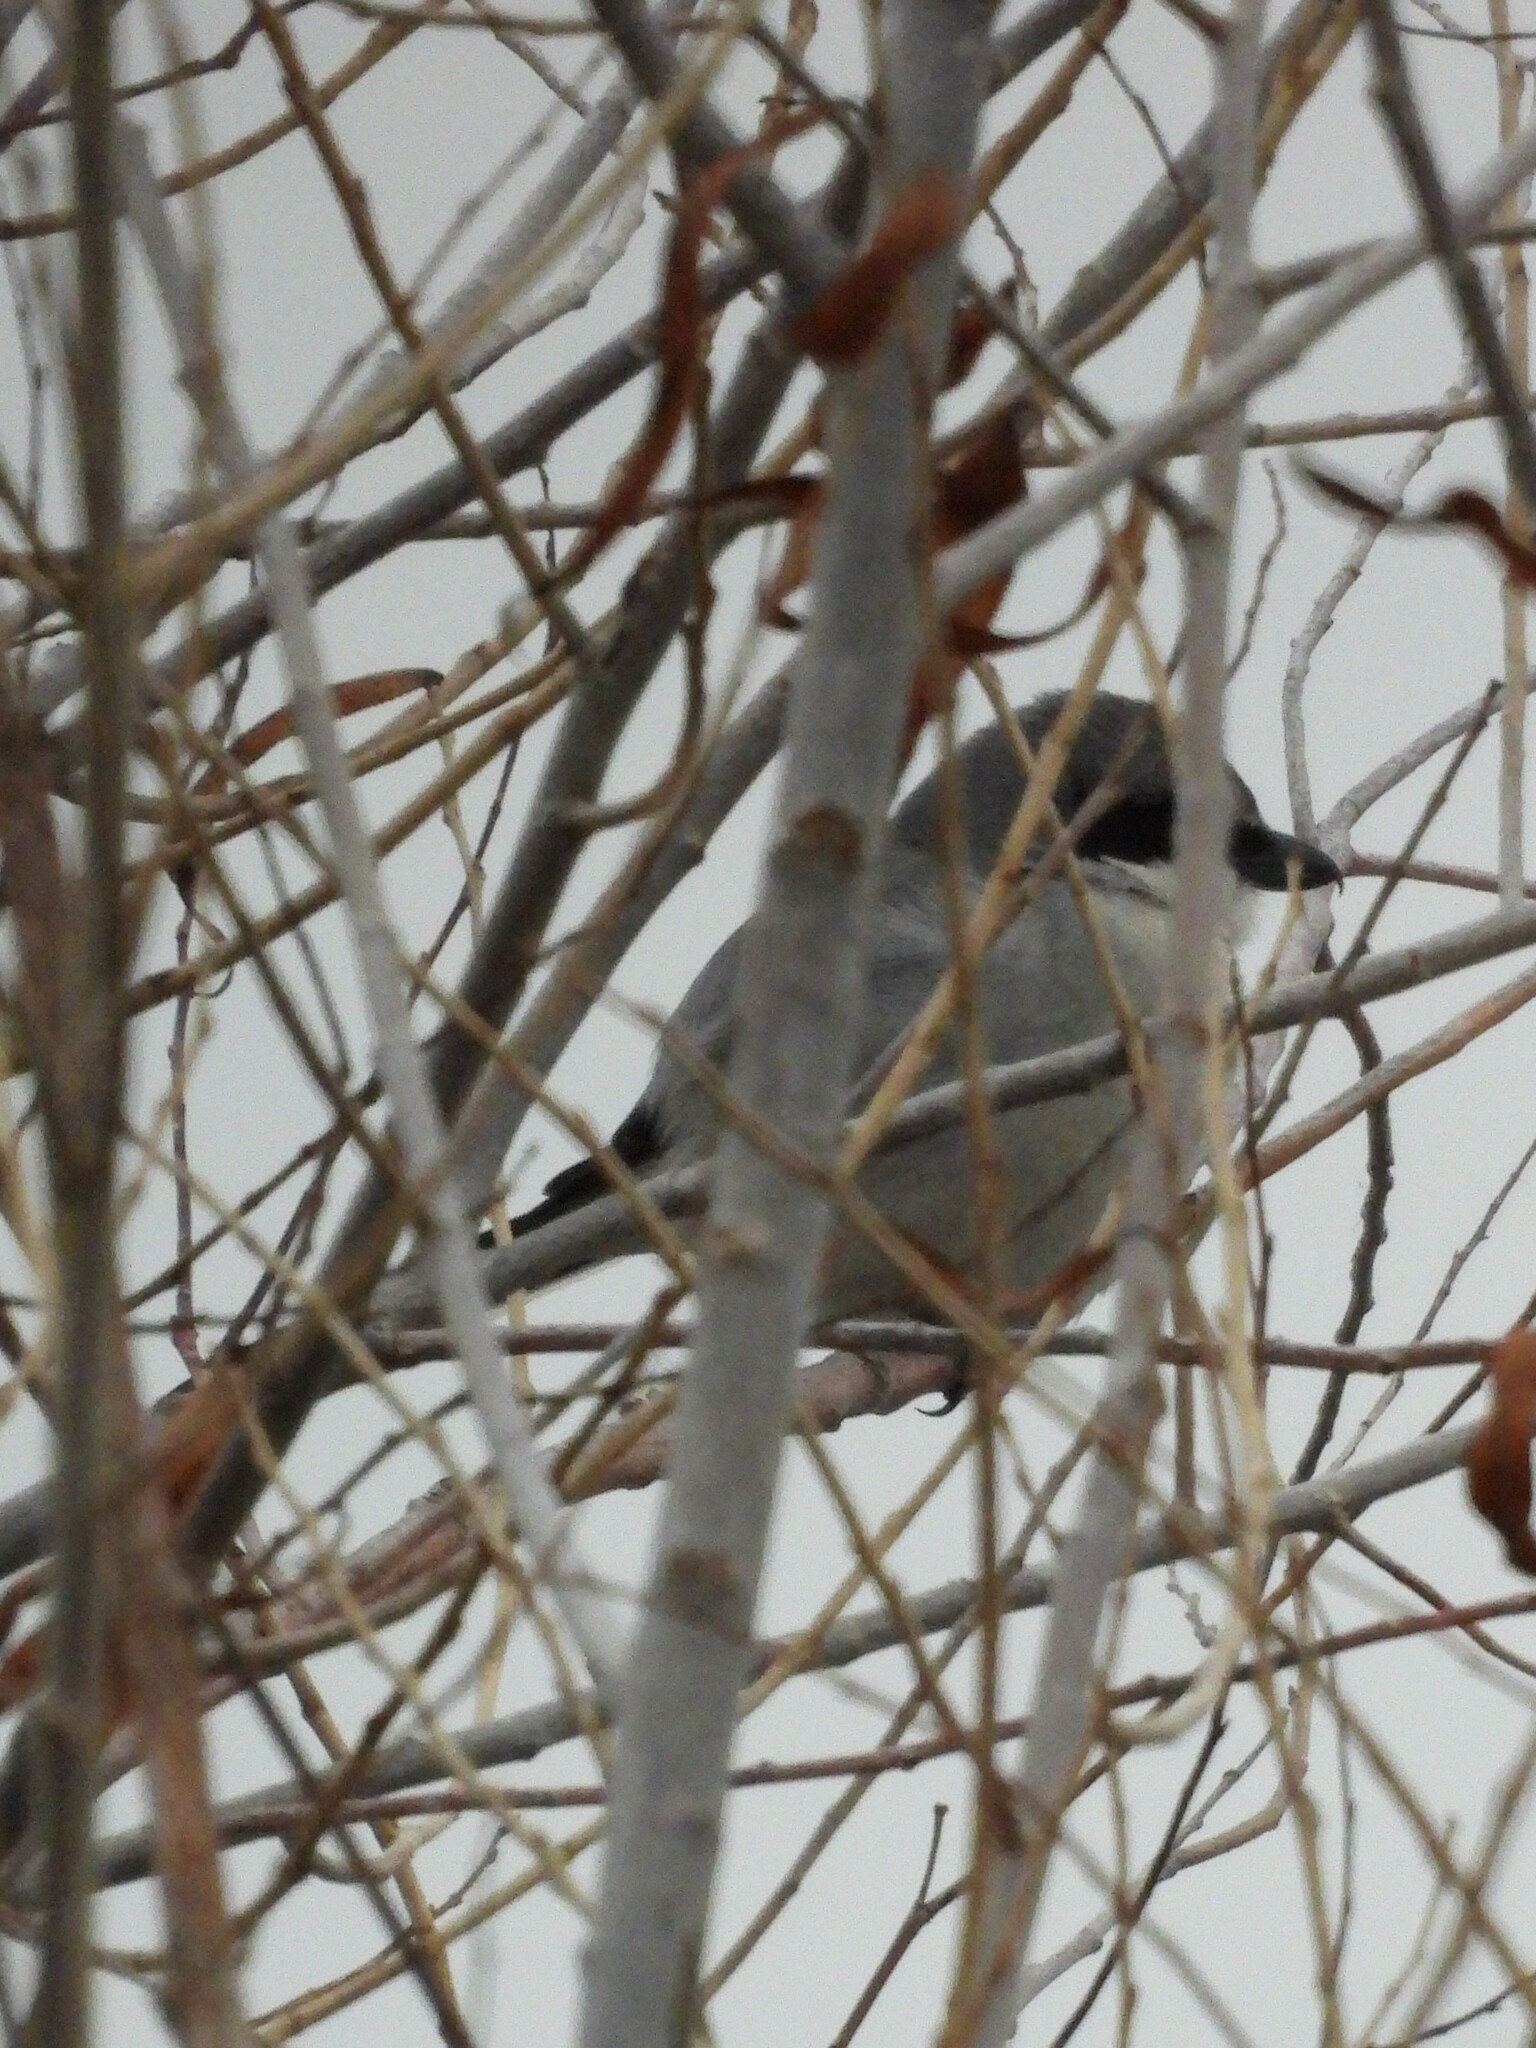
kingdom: Animalia
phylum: Chordata
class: Aves
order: Passeriformes
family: Laniidae
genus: Lanius
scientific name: Lanius ludovicianus
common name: Loggerhead shrike
